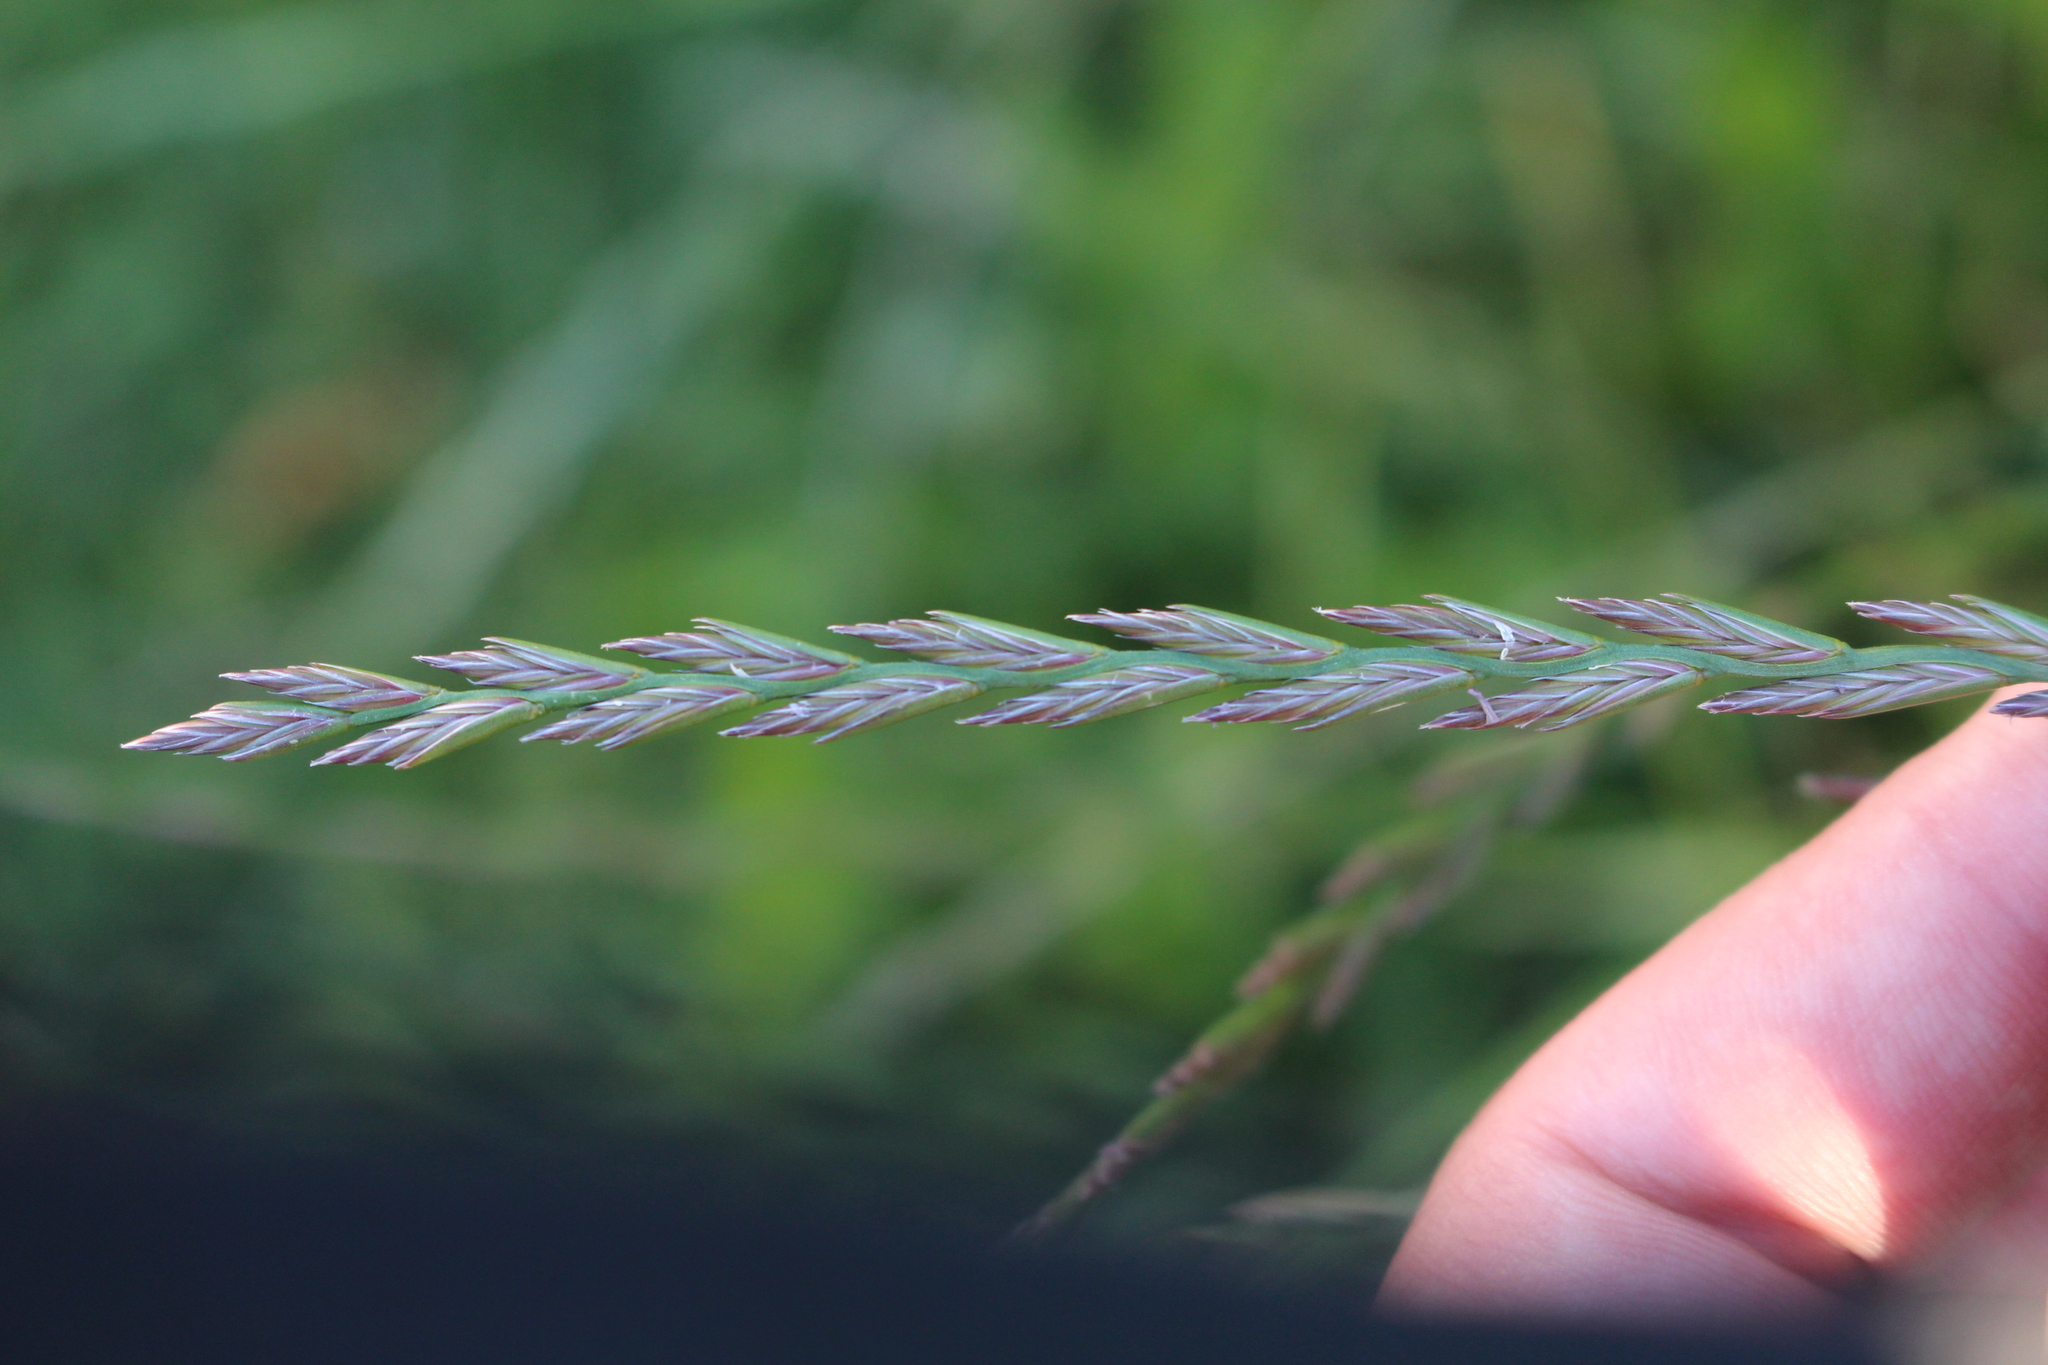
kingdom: Plantae
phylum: Tracheophyta
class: Liliopsida
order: Poales
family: Poaceae
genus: Lolium
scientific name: Lolium perenne
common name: Perennial ryegrass
